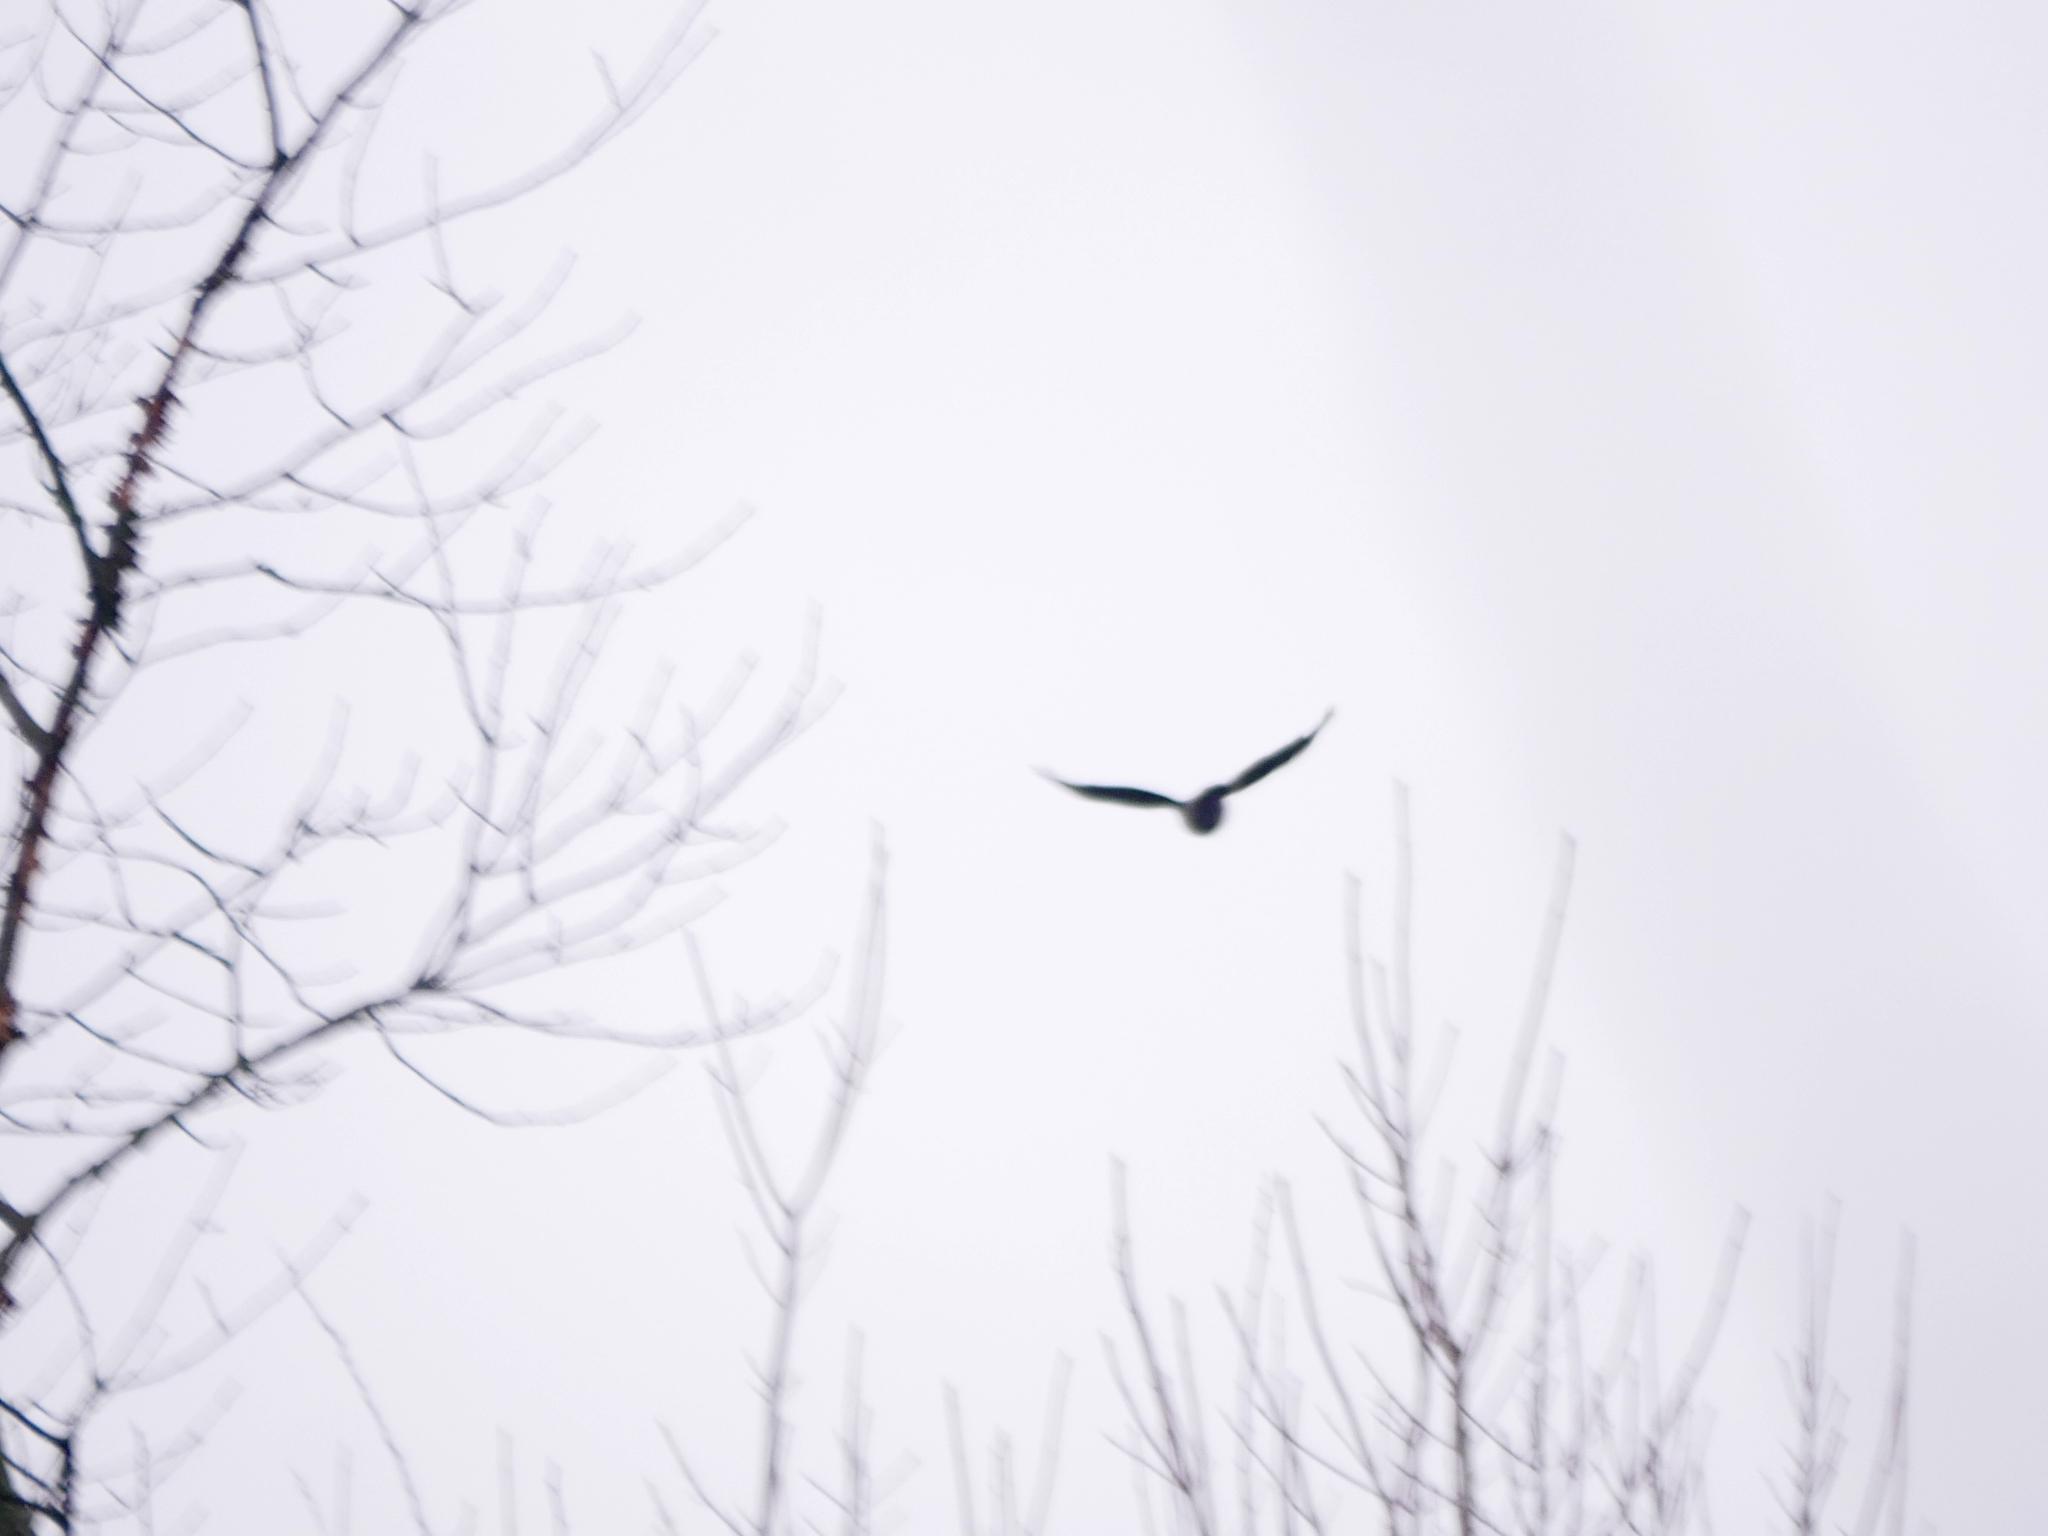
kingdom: Animalia
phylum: Chordata
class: Aves
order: Passeriformes
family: Corvidae
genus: Corvus
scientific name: Corvus cornix
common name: Hooded crow
